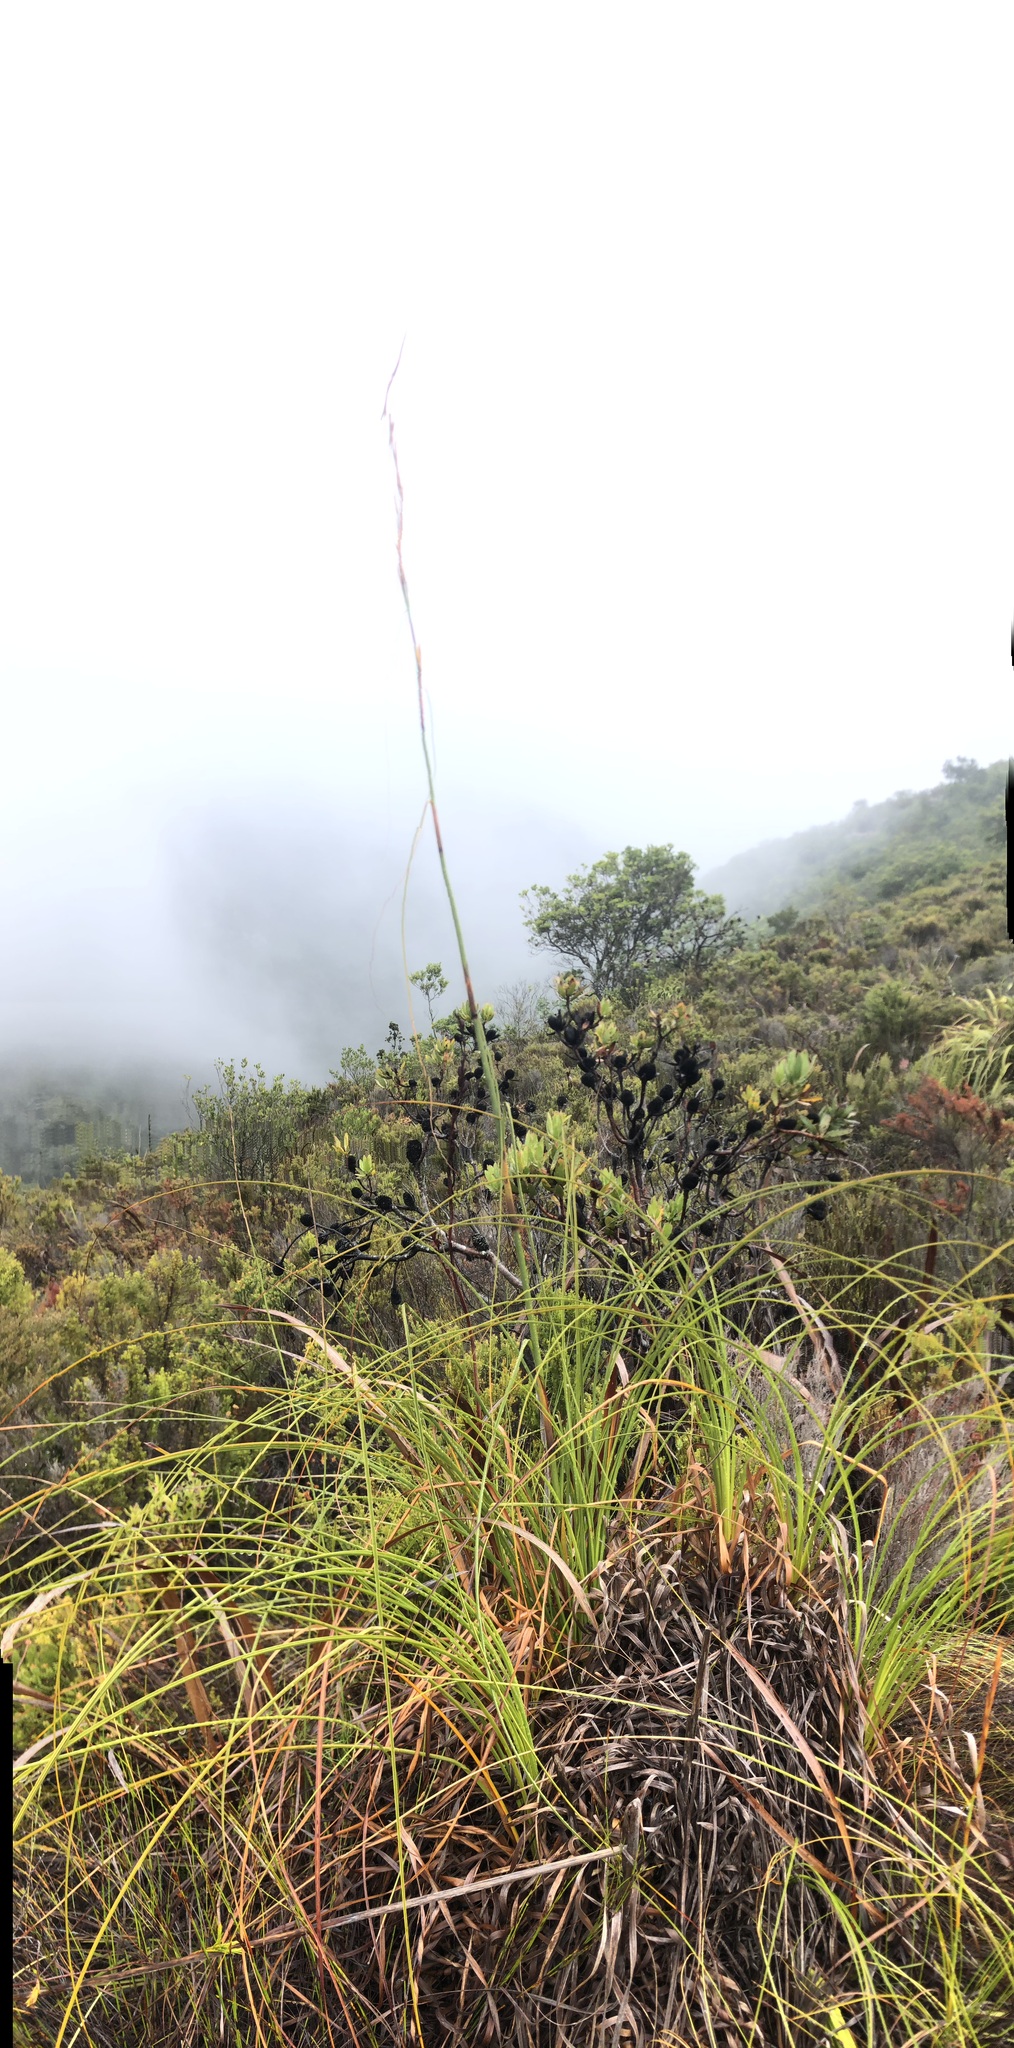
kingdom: Plantae
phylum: Tracheophyta
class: Liliopsida
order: Poales
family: Cyperaceae
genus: Tetraria
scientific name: Tetraria involucrata
